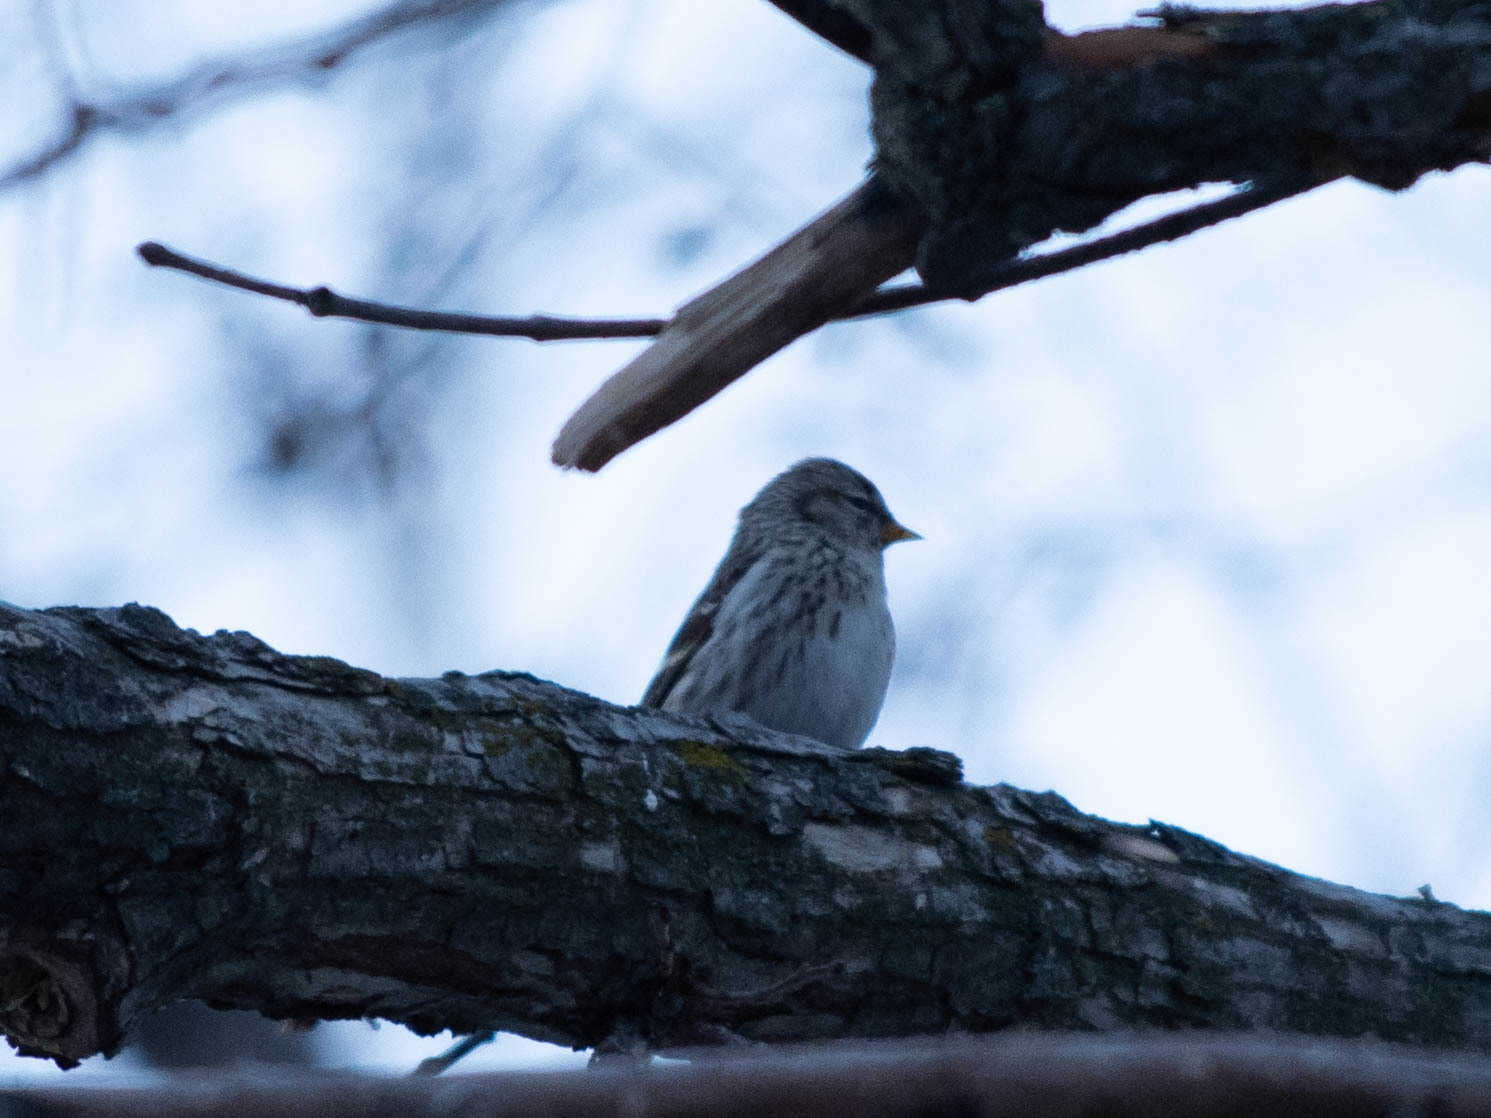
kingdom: Animalia
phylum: Chordata
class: Aves
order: Passeriformes
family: Fringillidae
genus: Acanthis
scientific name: Acanthis flammea
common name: Common redpoll
